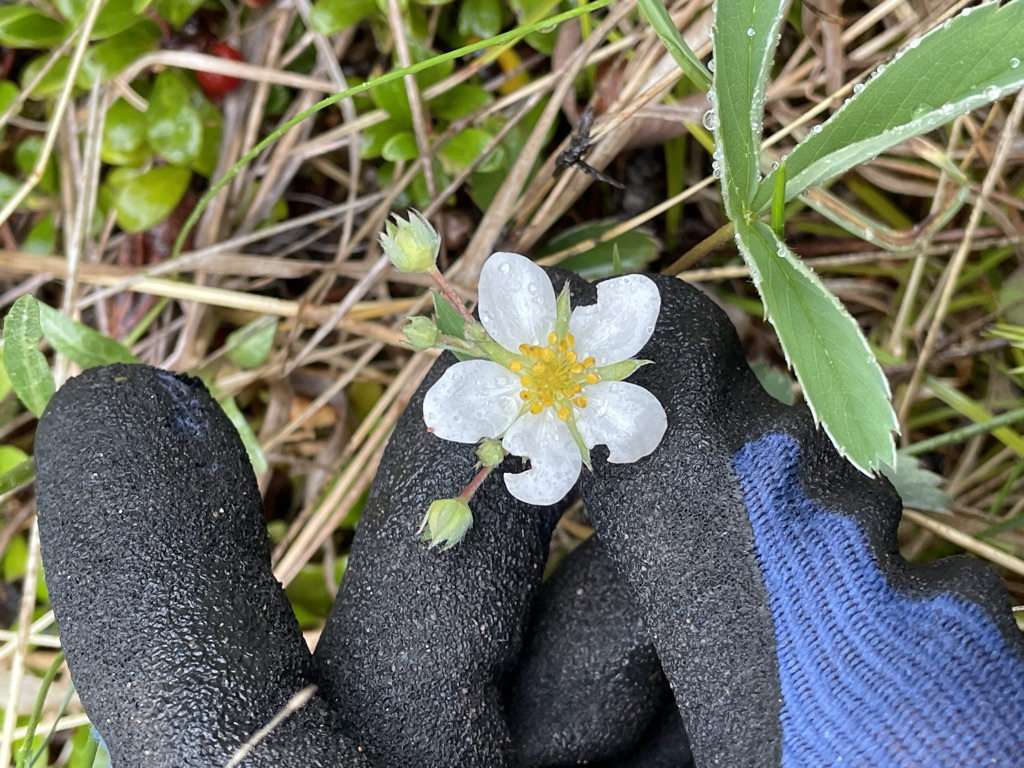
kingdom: Plantae
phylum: Tracheophyta
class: Magnoliopsida
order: Rosales
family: Rosaceae
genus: Fragaria
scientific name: Fragaria virginiana
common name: Thickleaved wild strawberry
